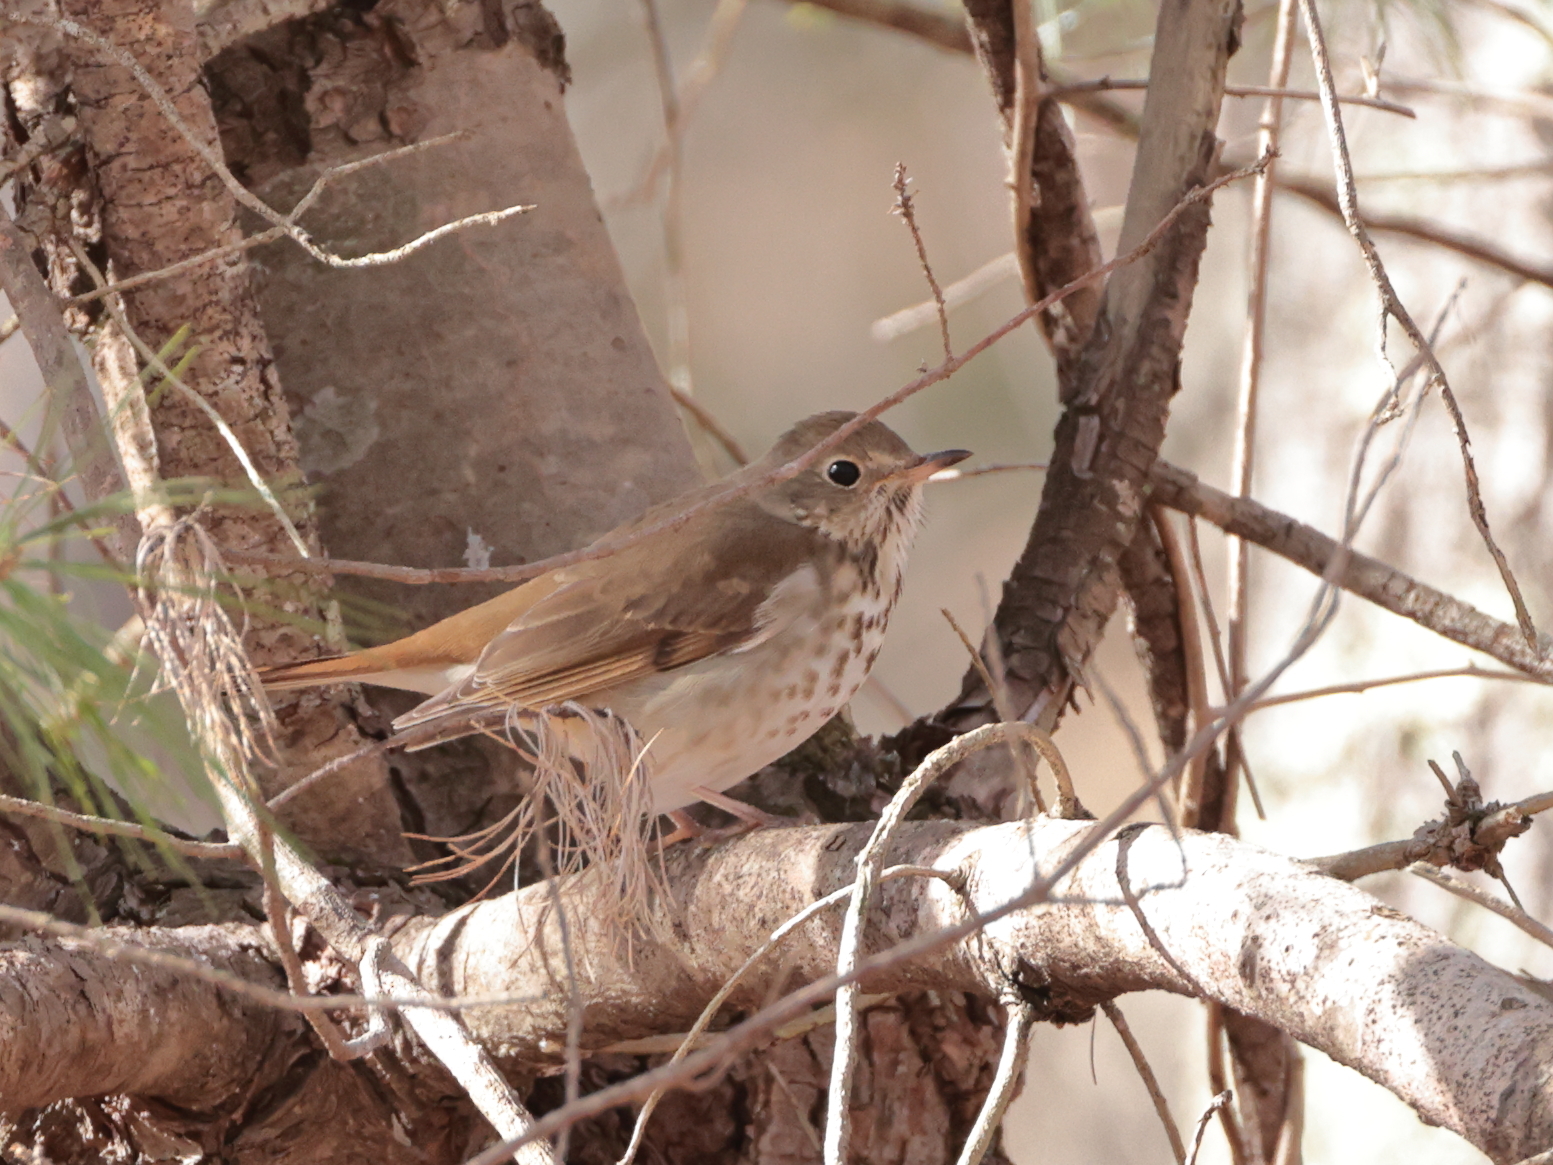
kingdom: Animalia
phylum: Chordata
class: Aves
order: Passeriformes
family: Turdidae
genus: Catharus
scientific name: Catharus guttatus
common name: Hermit thrush
